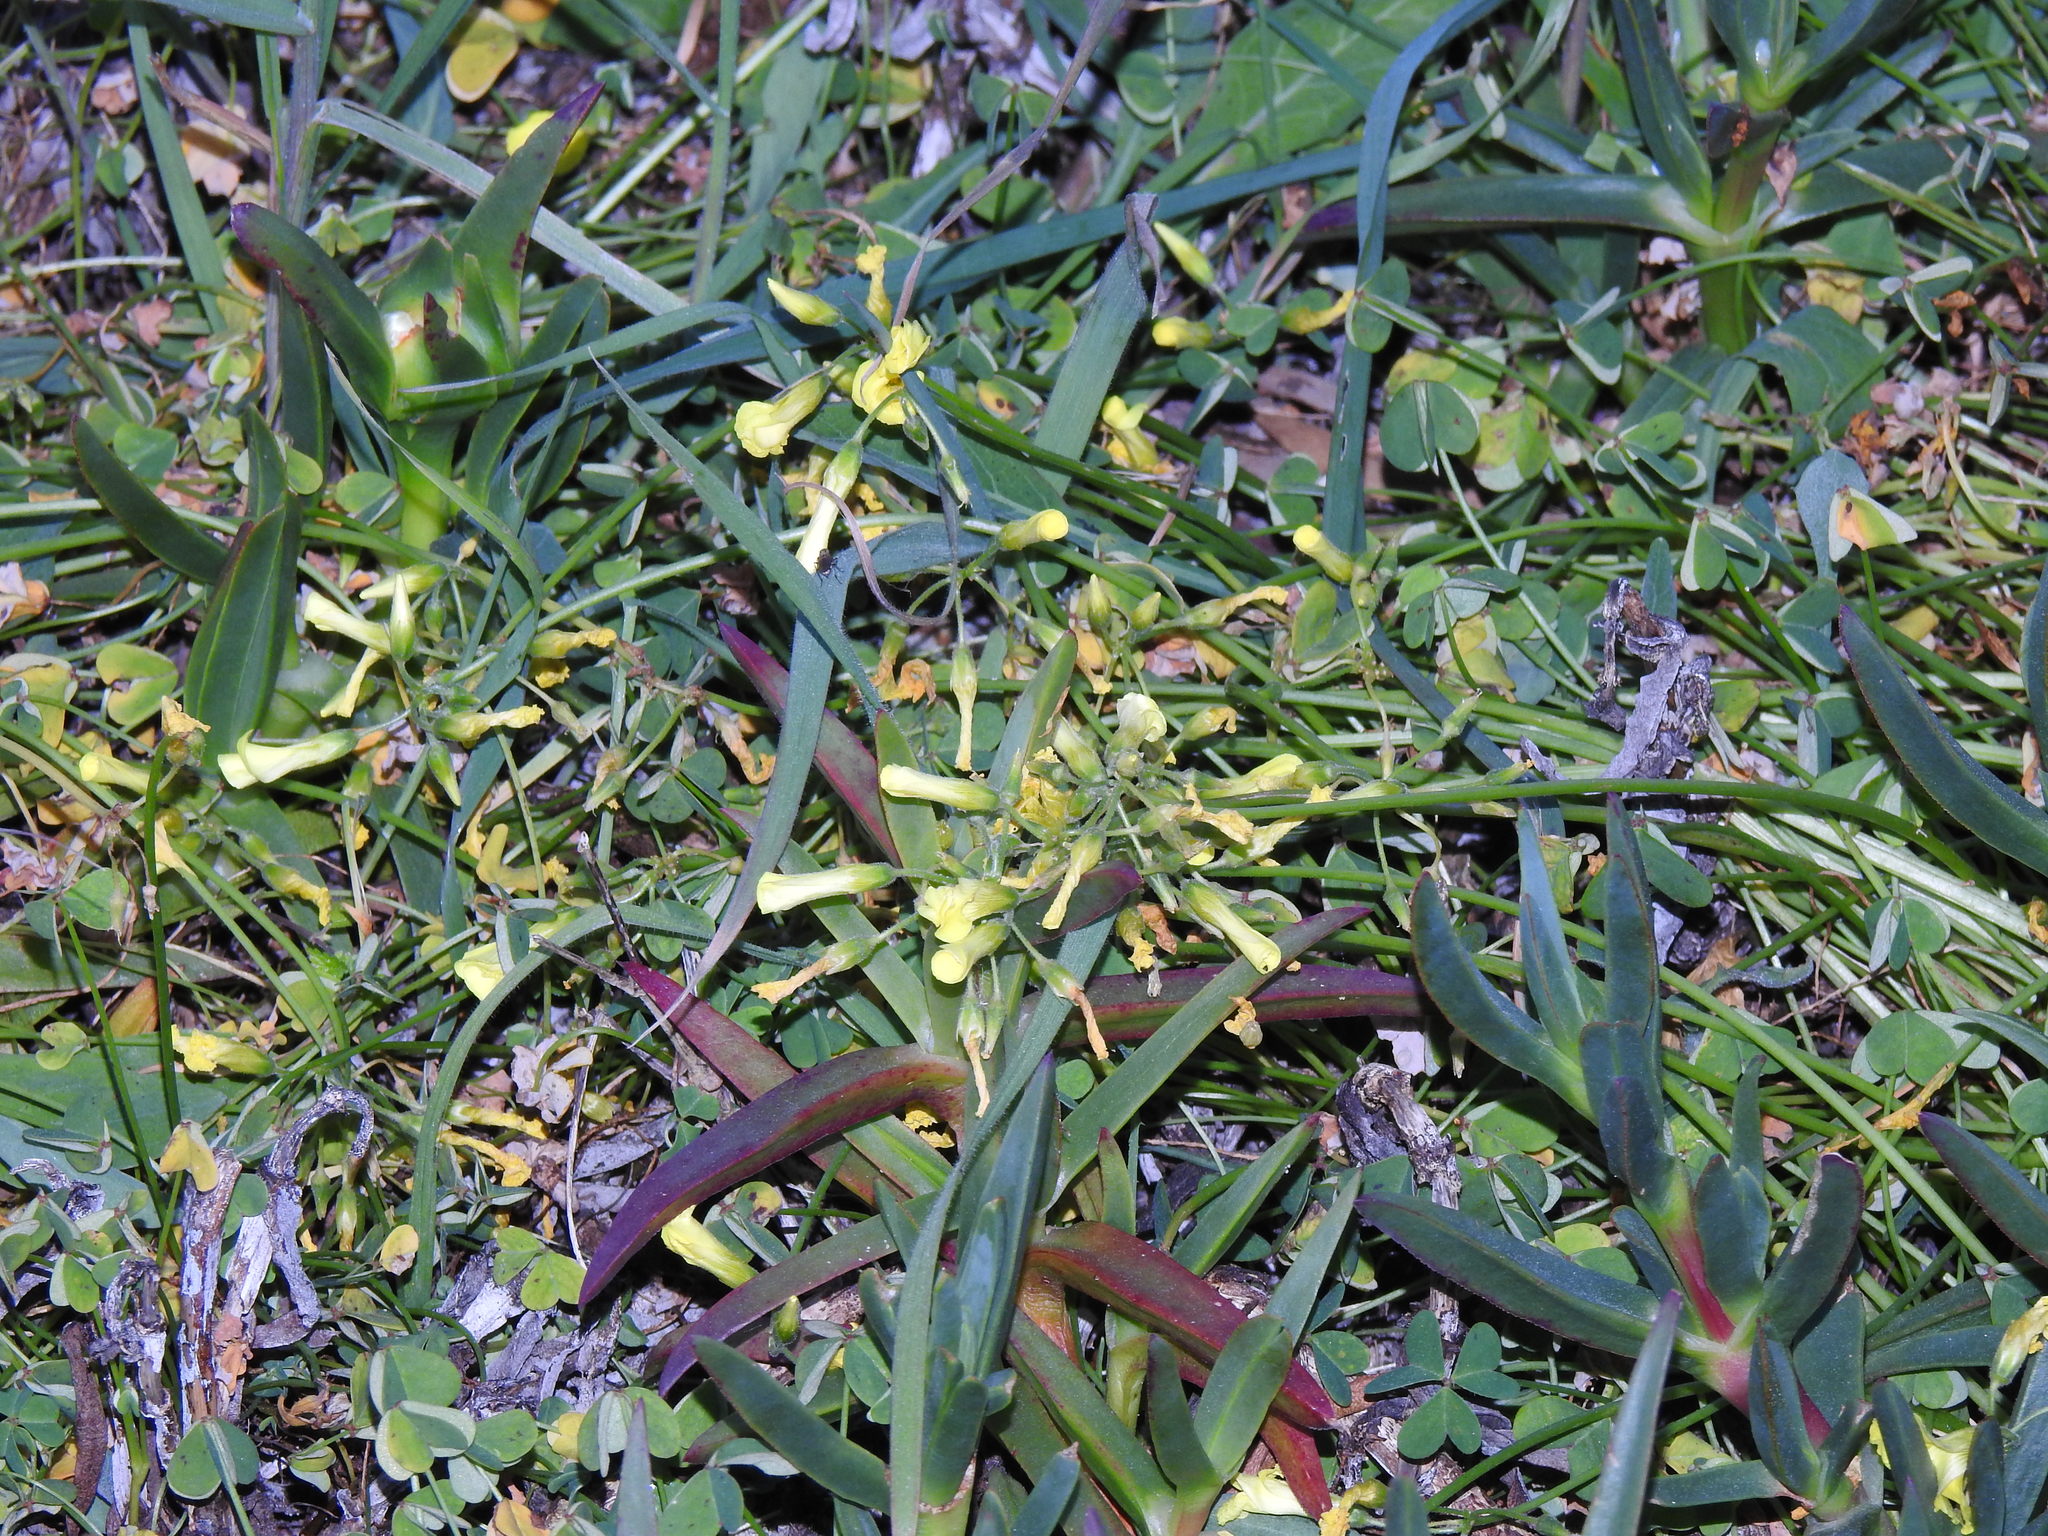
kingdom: Plantae
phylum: Tracheophyta
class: Magnoliopsida
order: Oxalidales
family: Oxalidaceae
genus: Oxalis
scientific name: Oxalis pes-caprae
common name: Bermuda-buttercup
